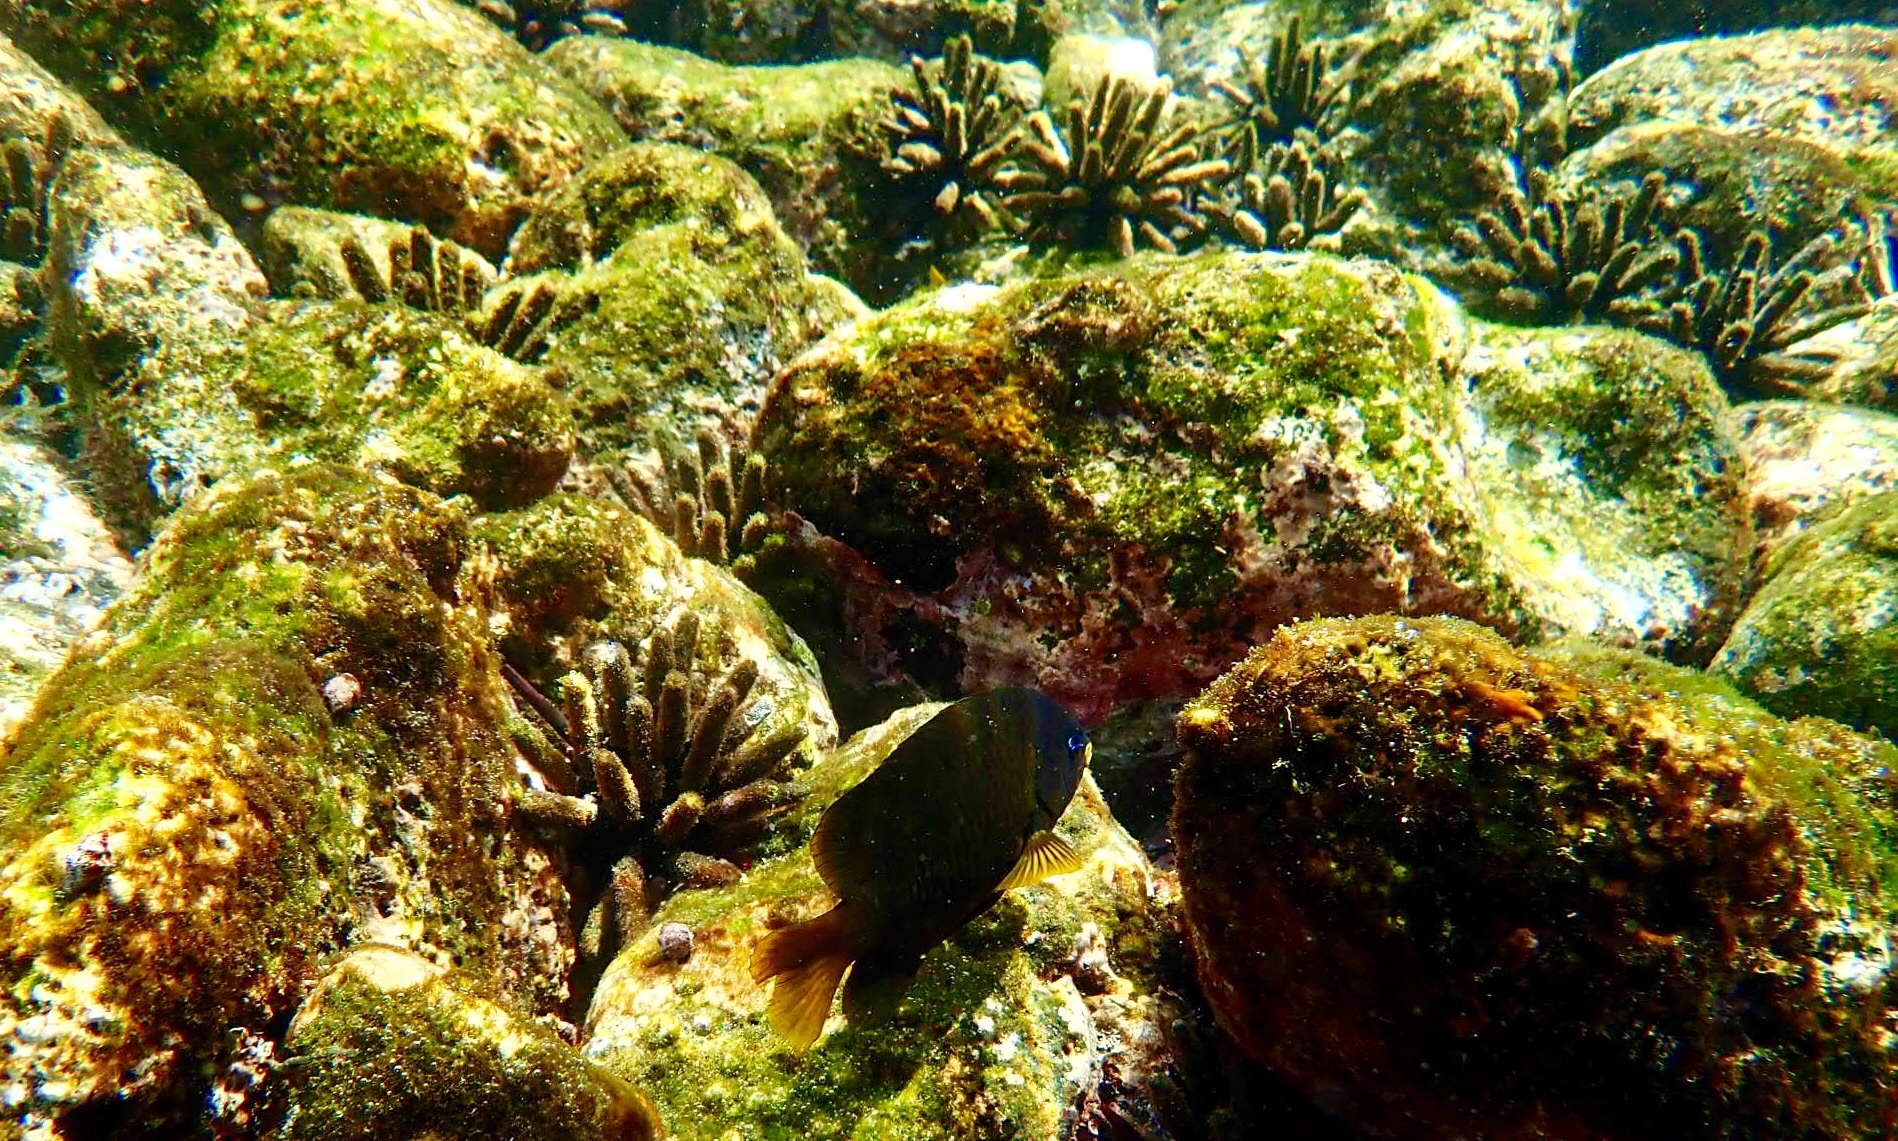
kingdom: Animalia
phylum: Echinodermata
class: Echinoidea
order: Cidaroida
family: Cidaridae
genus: Eucidaris
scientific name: Eucidaris galapagensis
